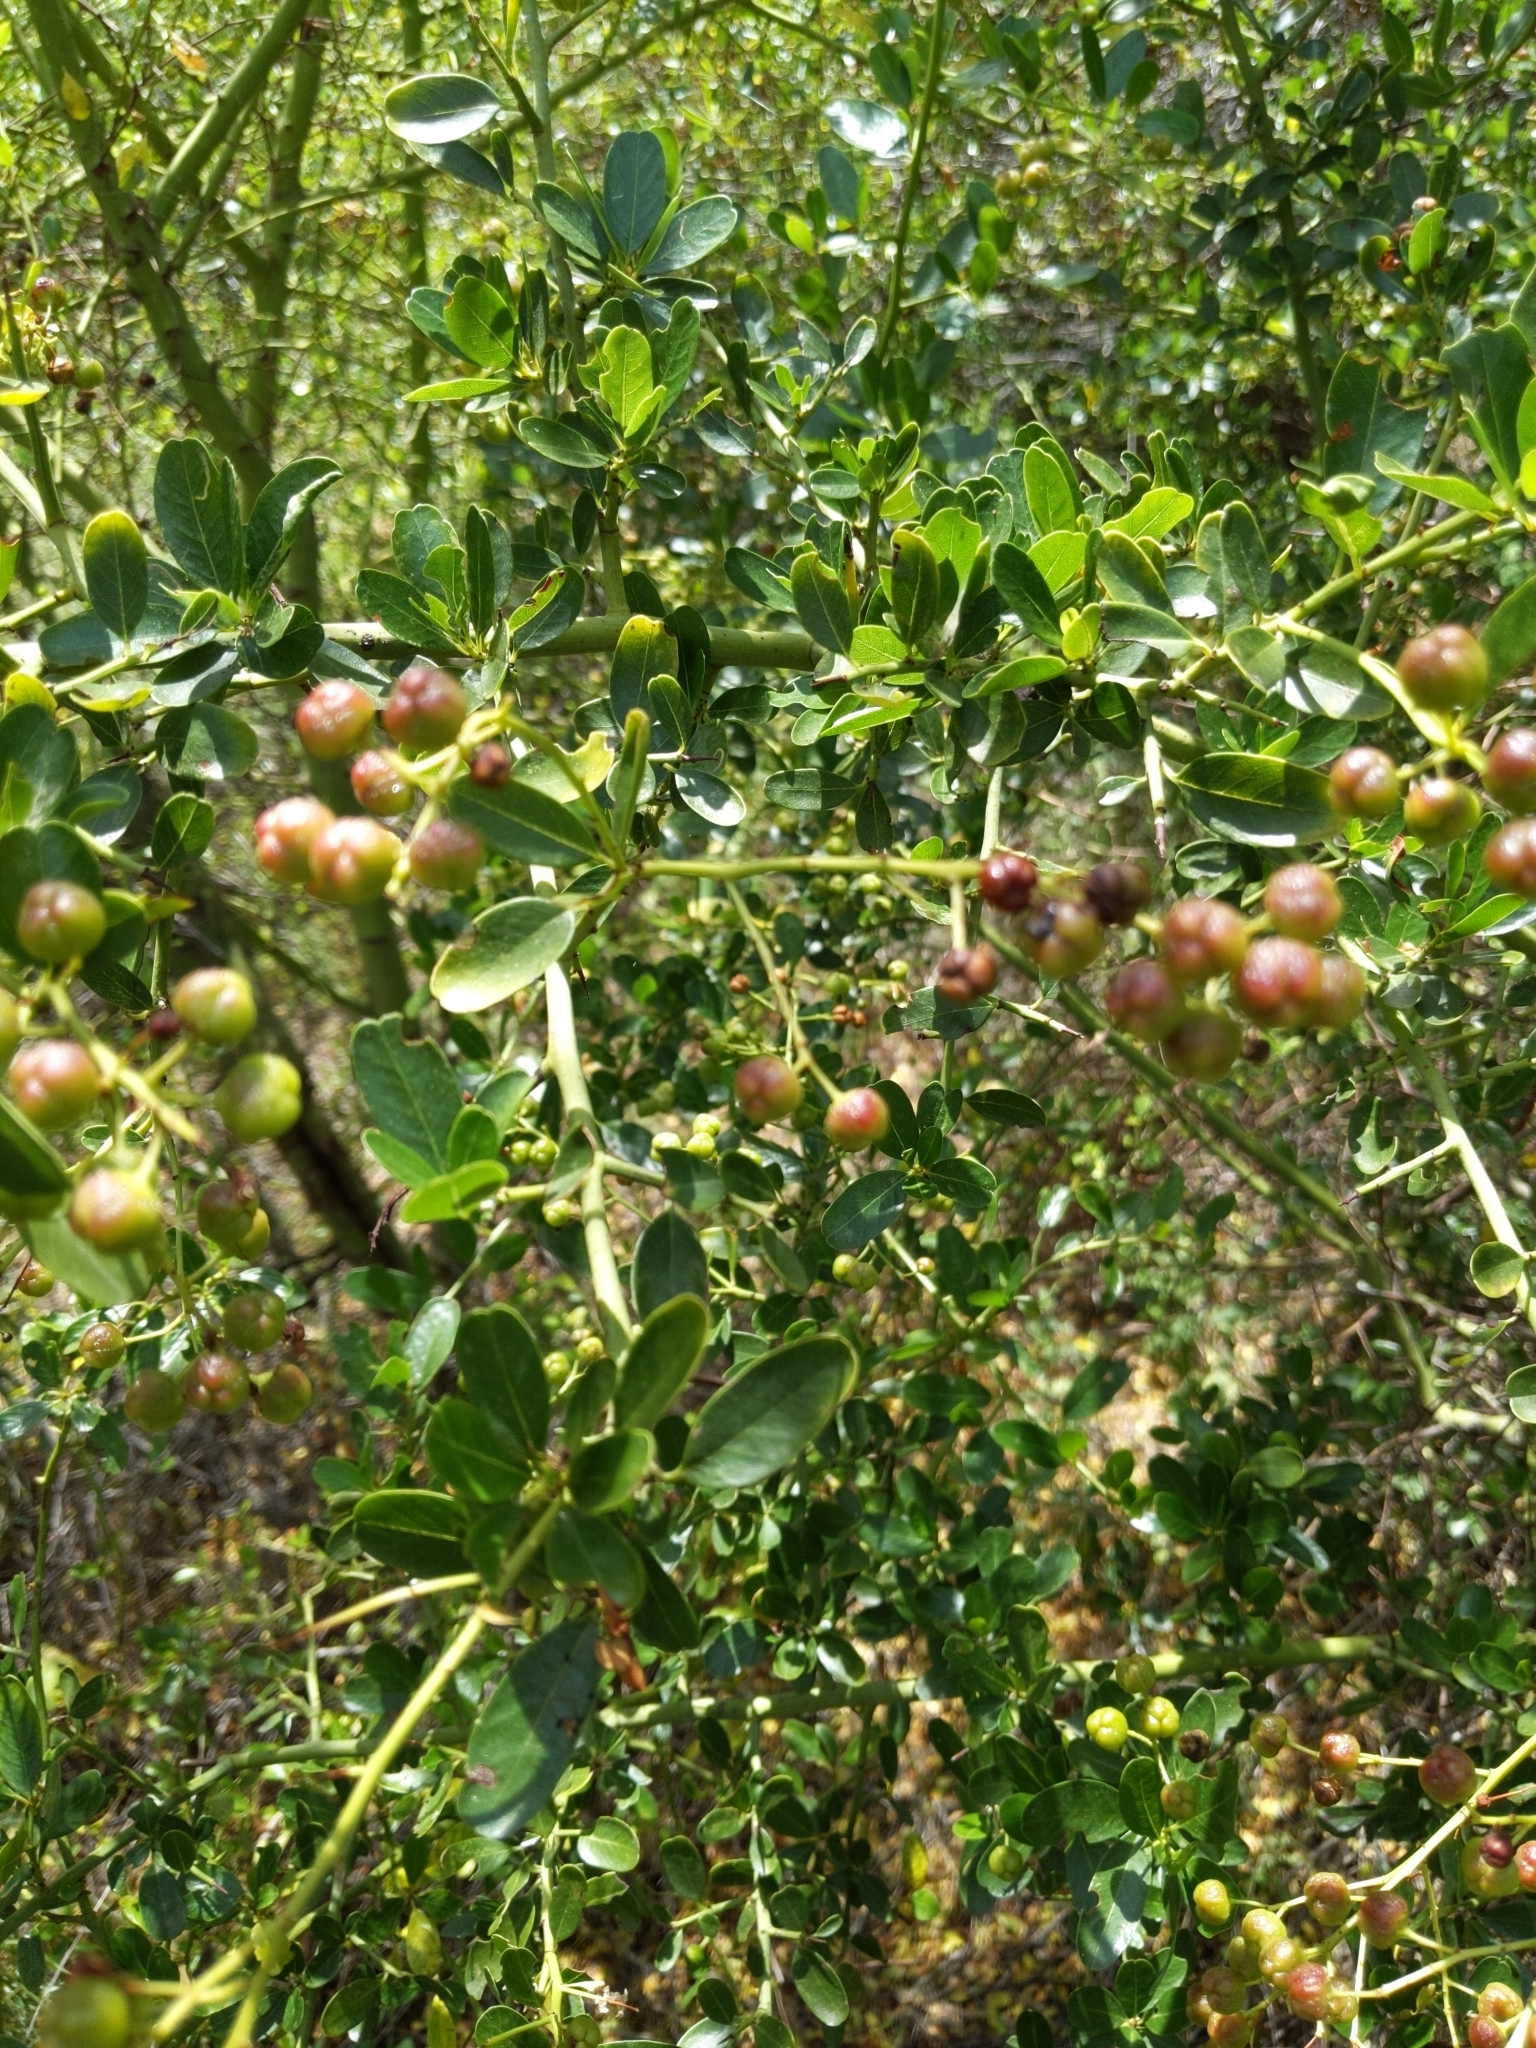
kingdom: Plantae
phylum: Tracheophyta
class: Magnoliopsida
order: Rosales
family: Rhamnaceae
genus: Ceanothus
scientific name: Ceanothus spinosus
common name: Greenbark whitethorn
